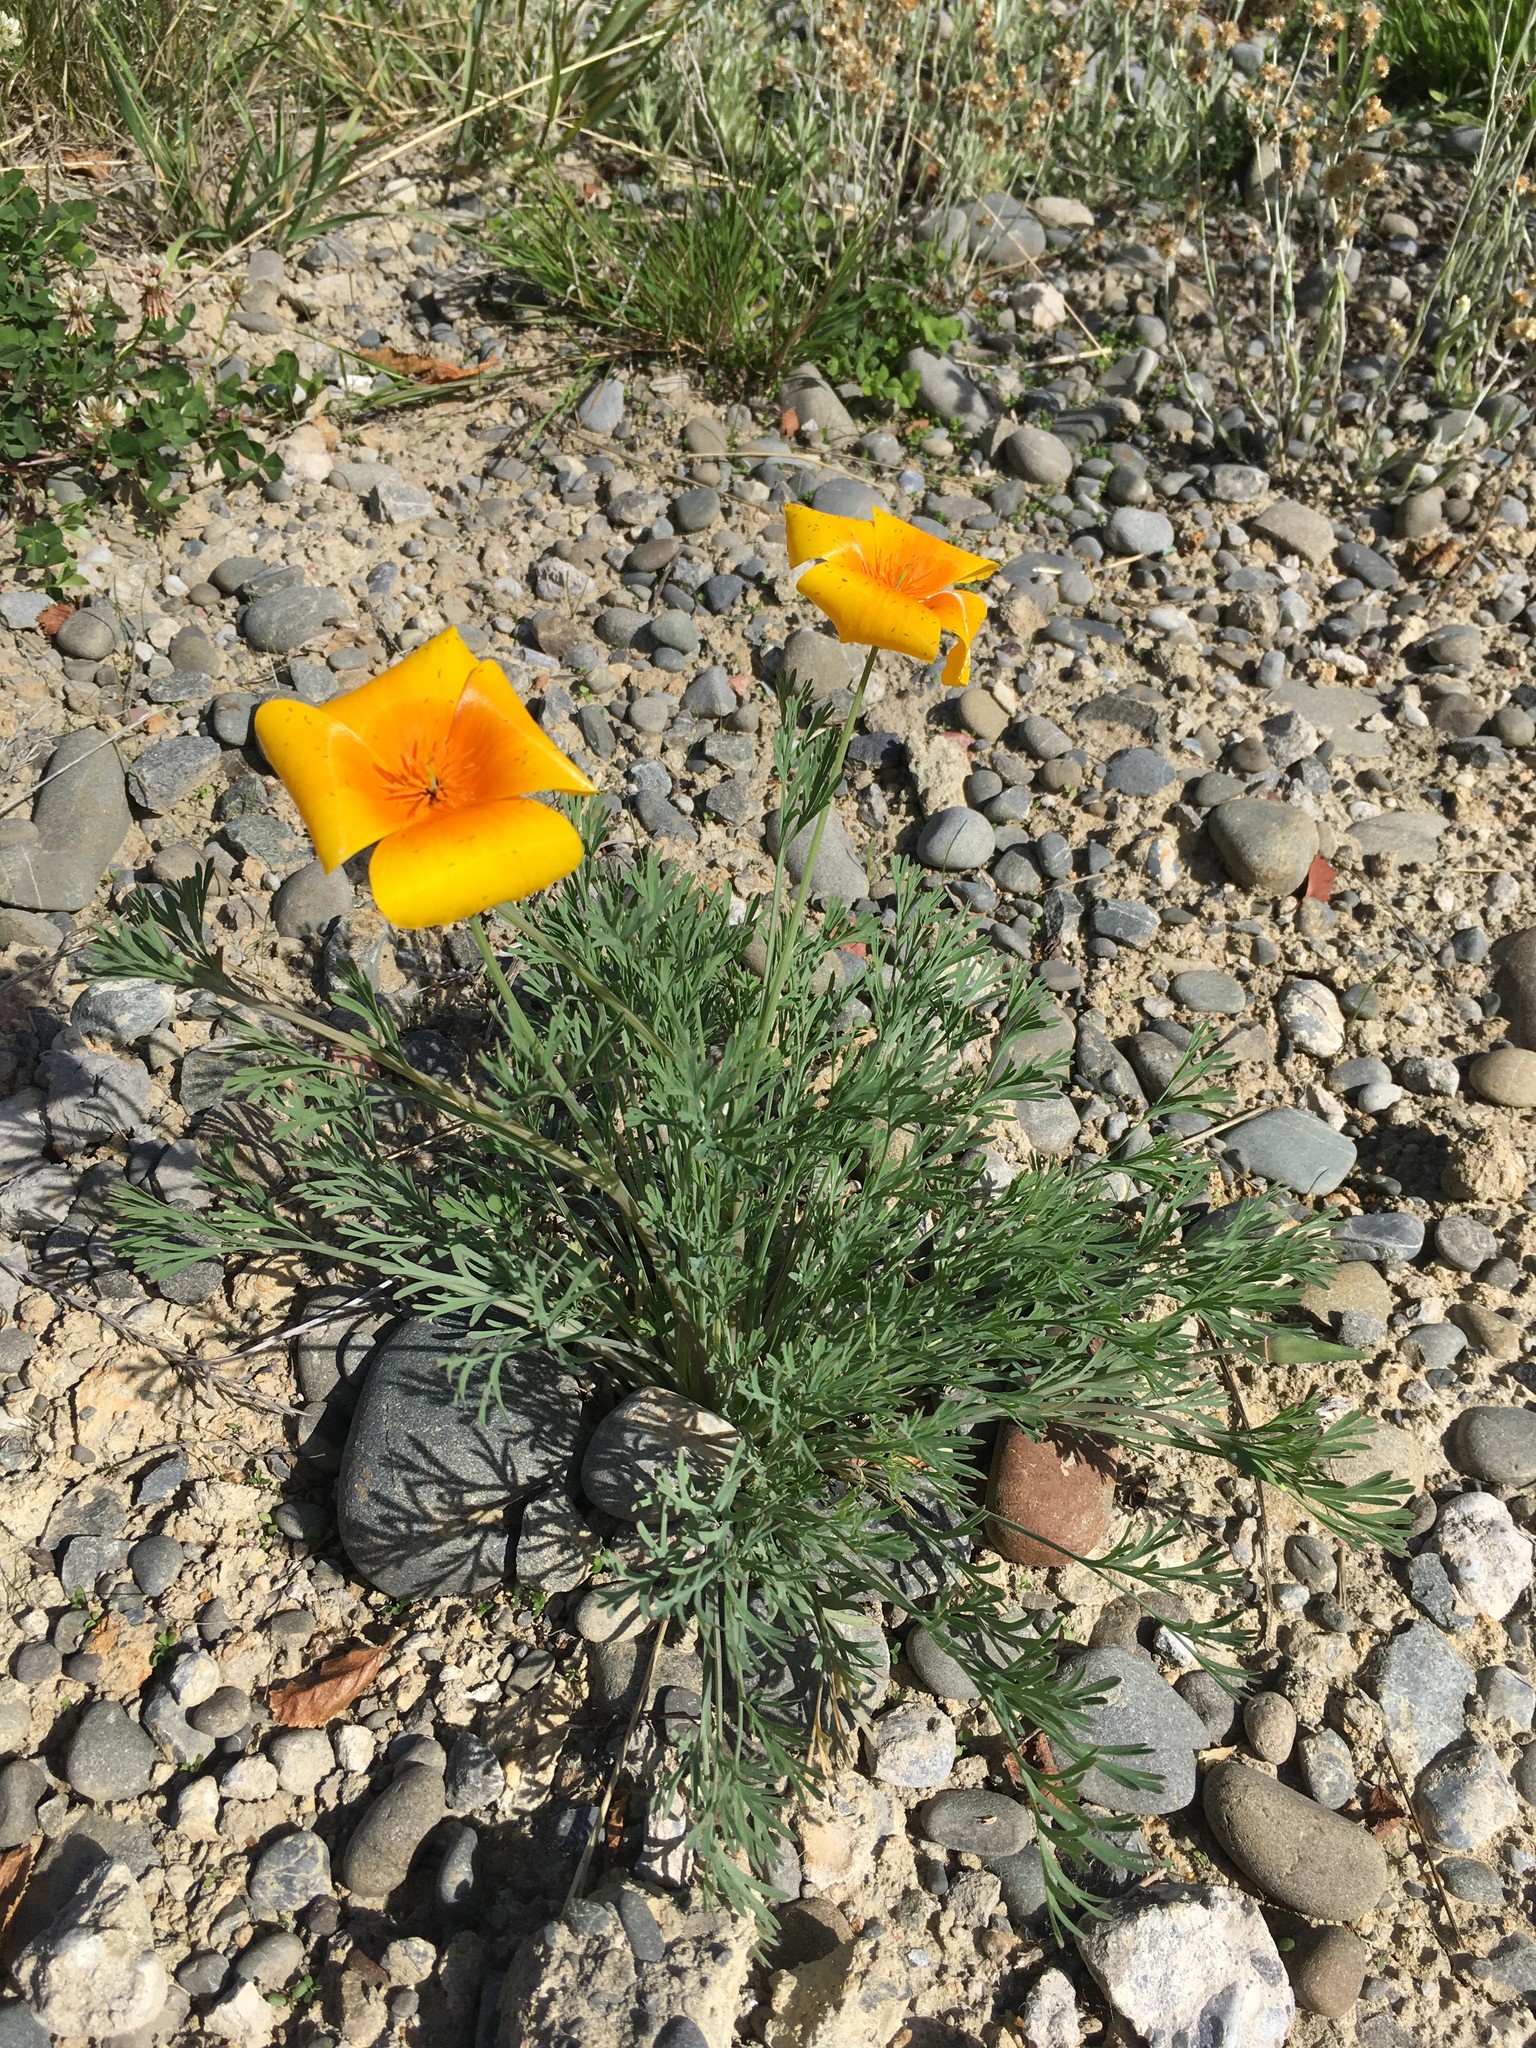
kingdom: Plantae
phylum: Tracheophyta
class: Magnoliopsida
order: Ranunculales
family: Papaveraceae
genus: Eschscholzia
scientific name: Eschscholzia californica
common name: California poppy
